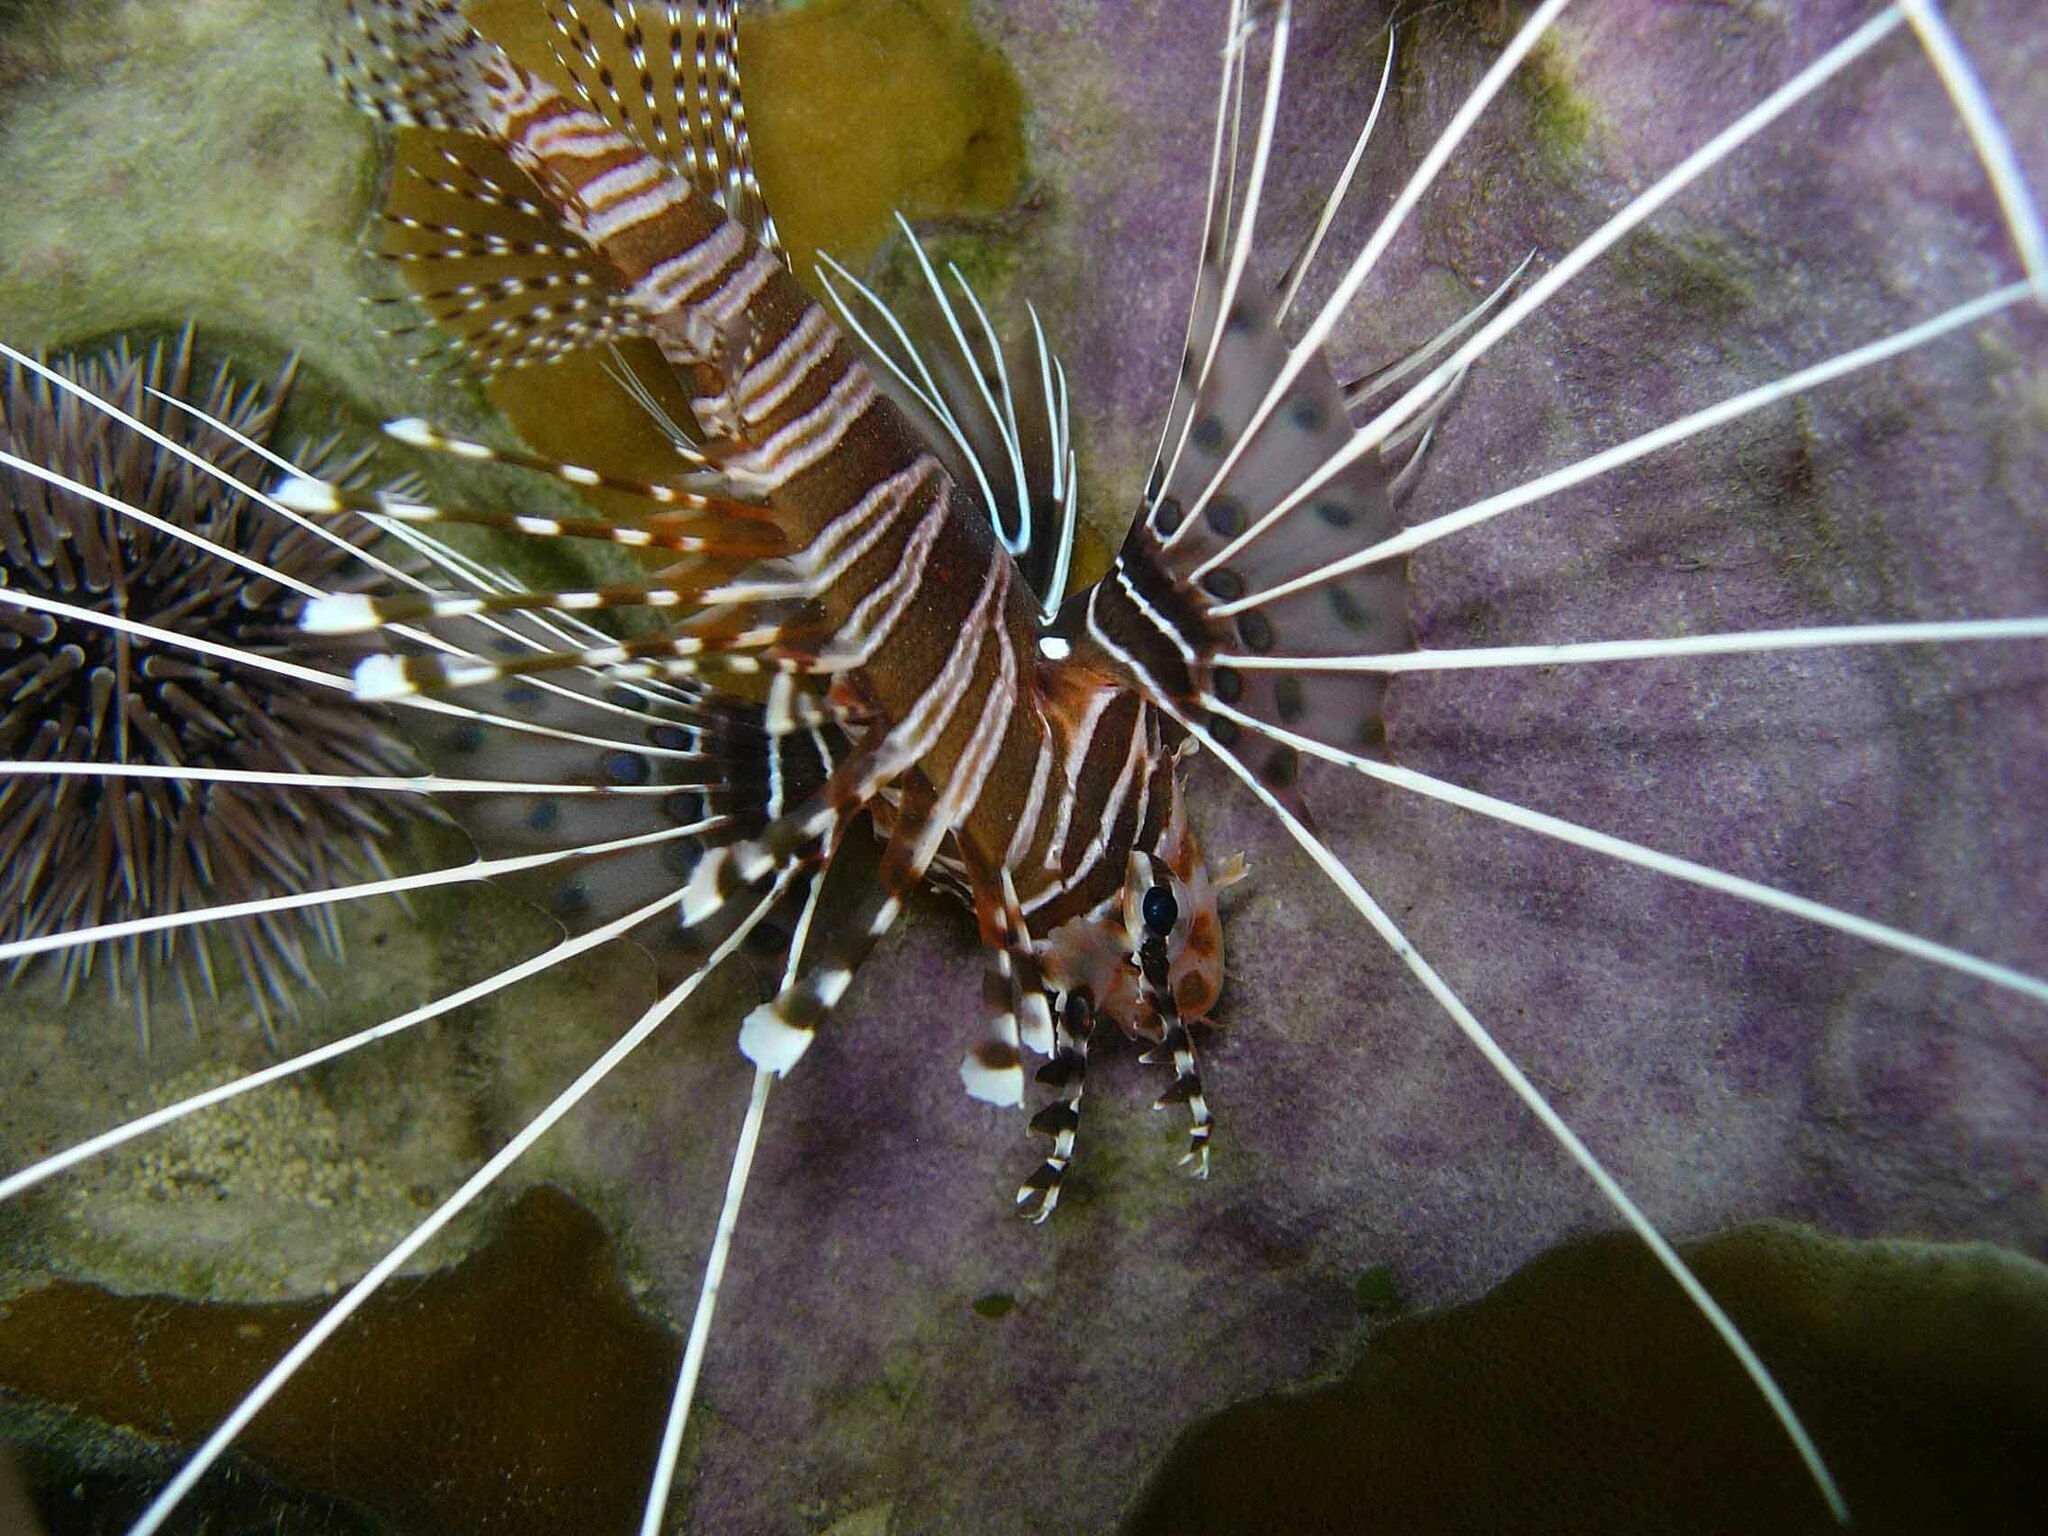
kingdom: Animalia
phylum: Chordata
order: Scorpaeniformes
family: Scorpaenidae
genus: Pterois
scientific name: Pterois antennata
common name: Spotfin lionfish
